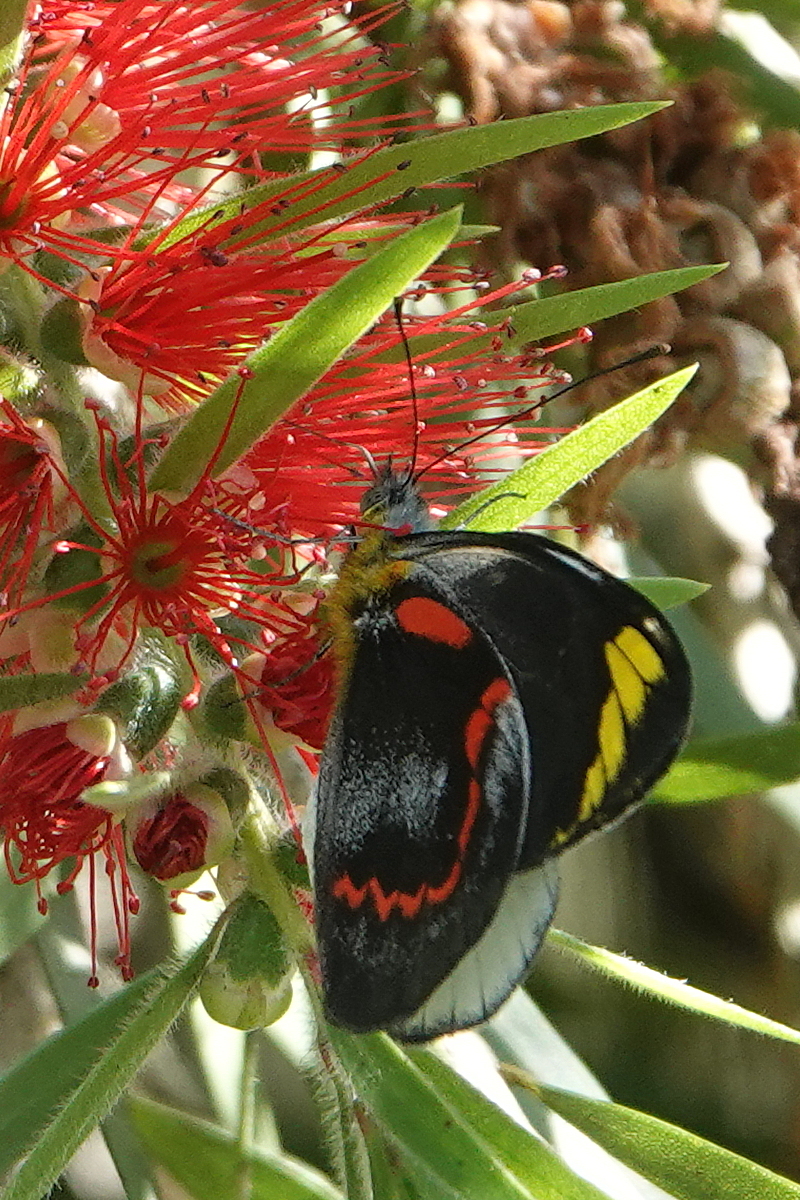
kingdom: Animalia
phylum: Arthropoda
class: Insecta
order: Lepidoptera
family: Pieridae
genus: Delias
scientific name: Delias nigrina
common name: Black jezebel
